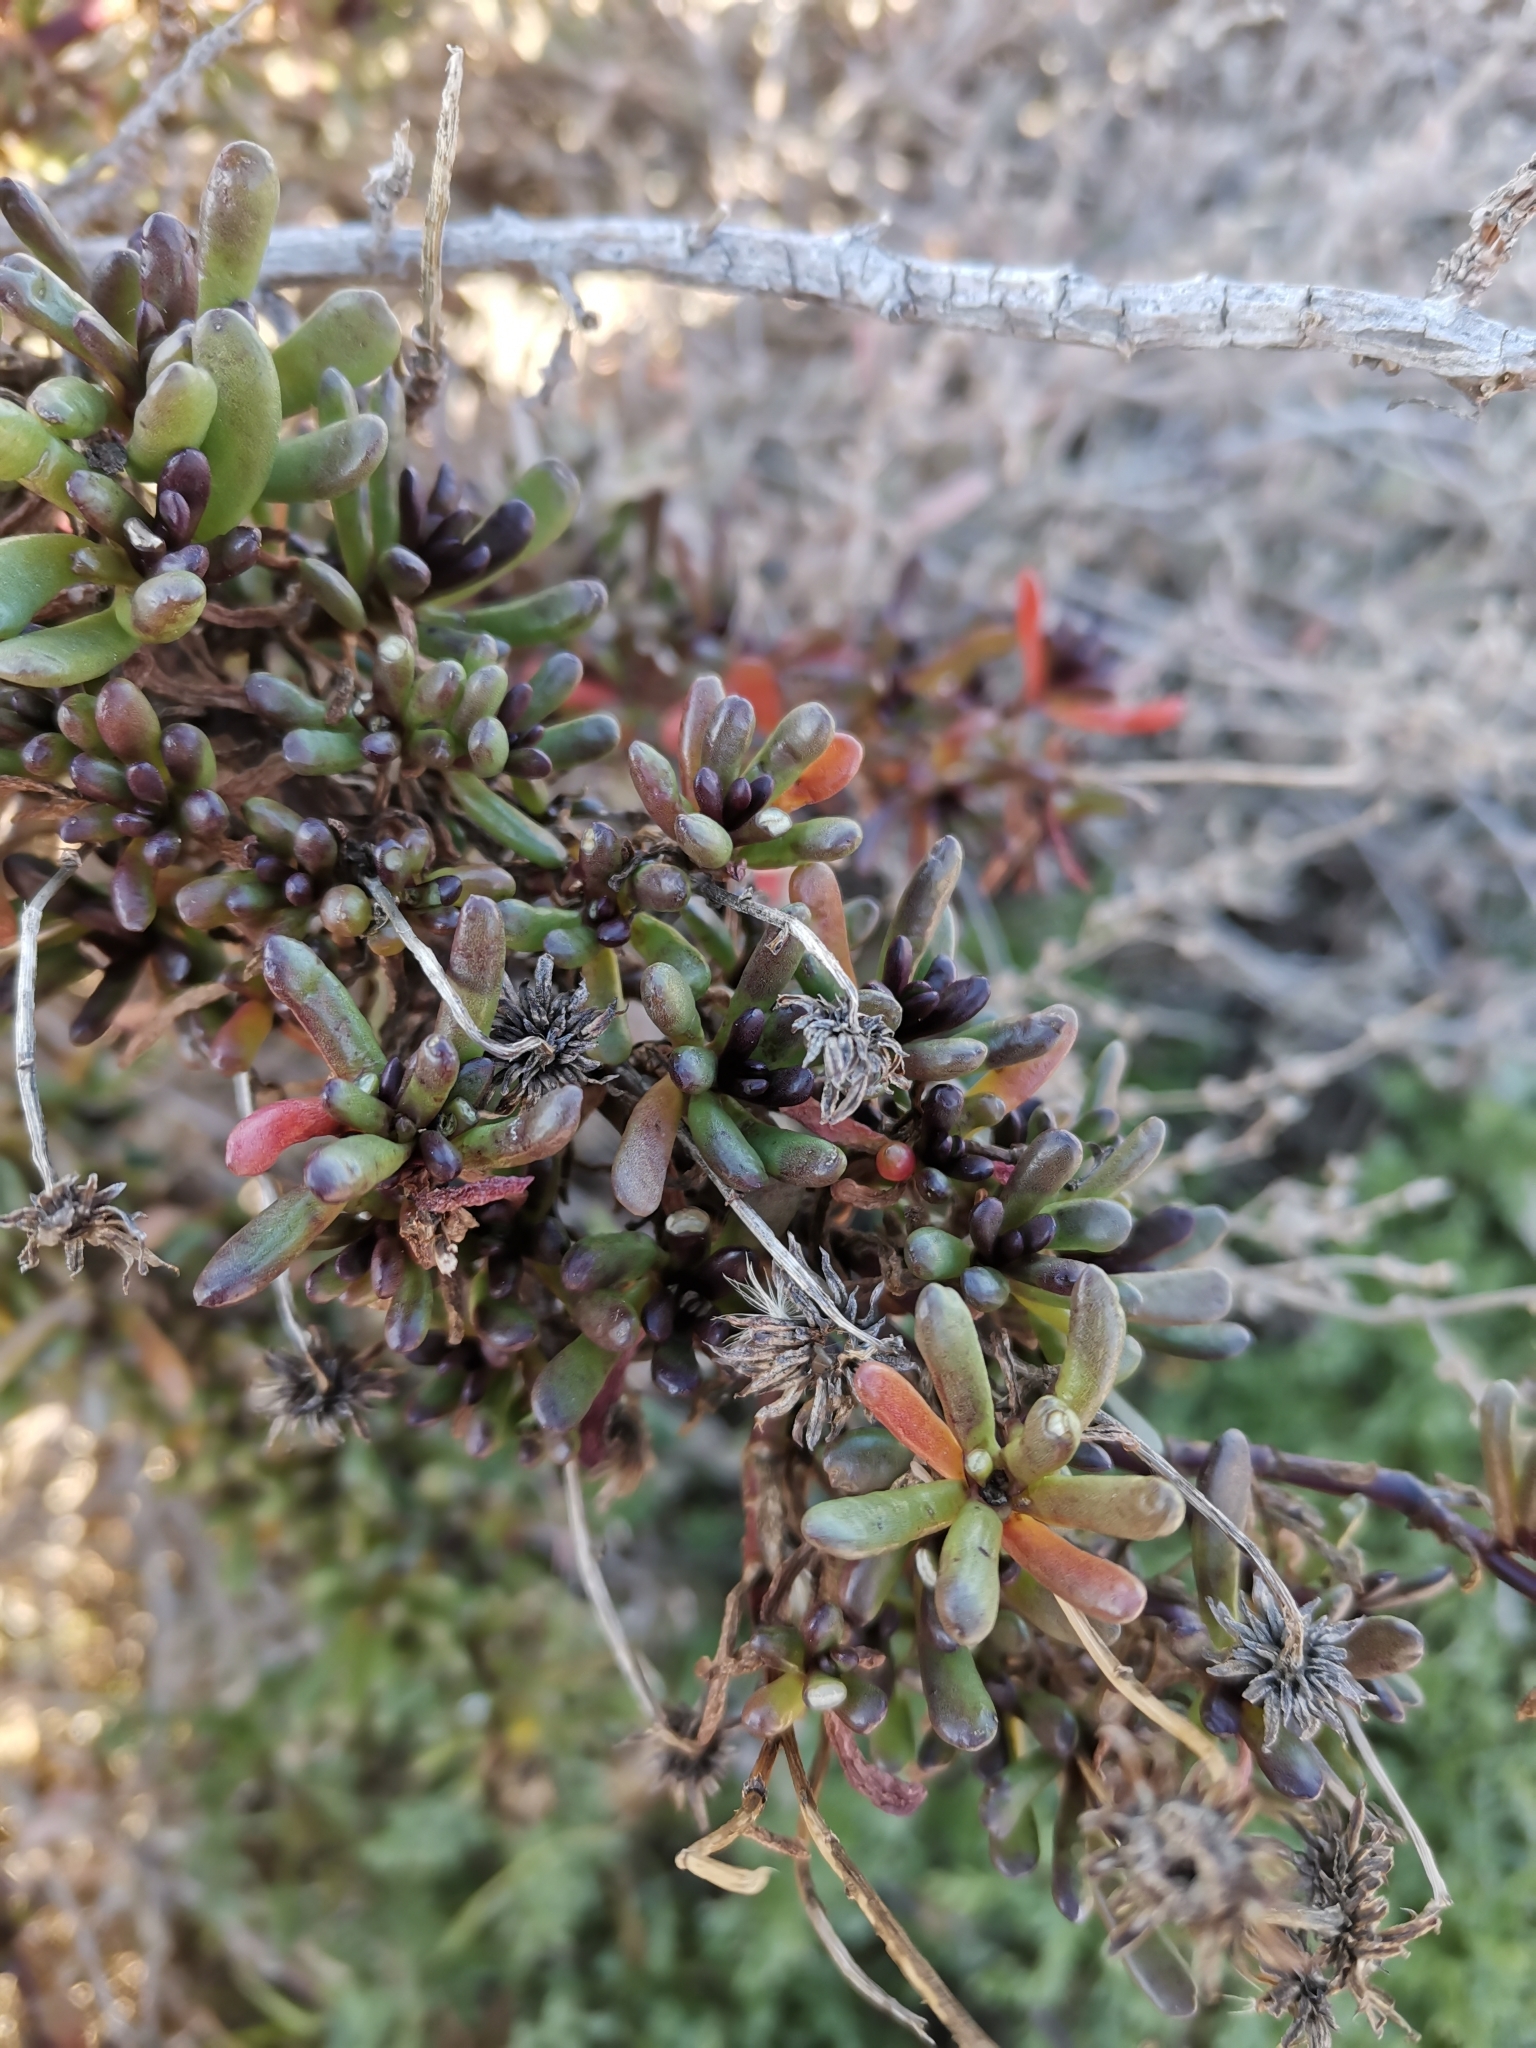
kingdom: Plantae
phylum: Tracheophyta
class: Magnoliopsida
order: Asterales
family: Asteraceae
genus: Limbarda
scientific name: Limbarda crithmoides
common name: Golden samphire
